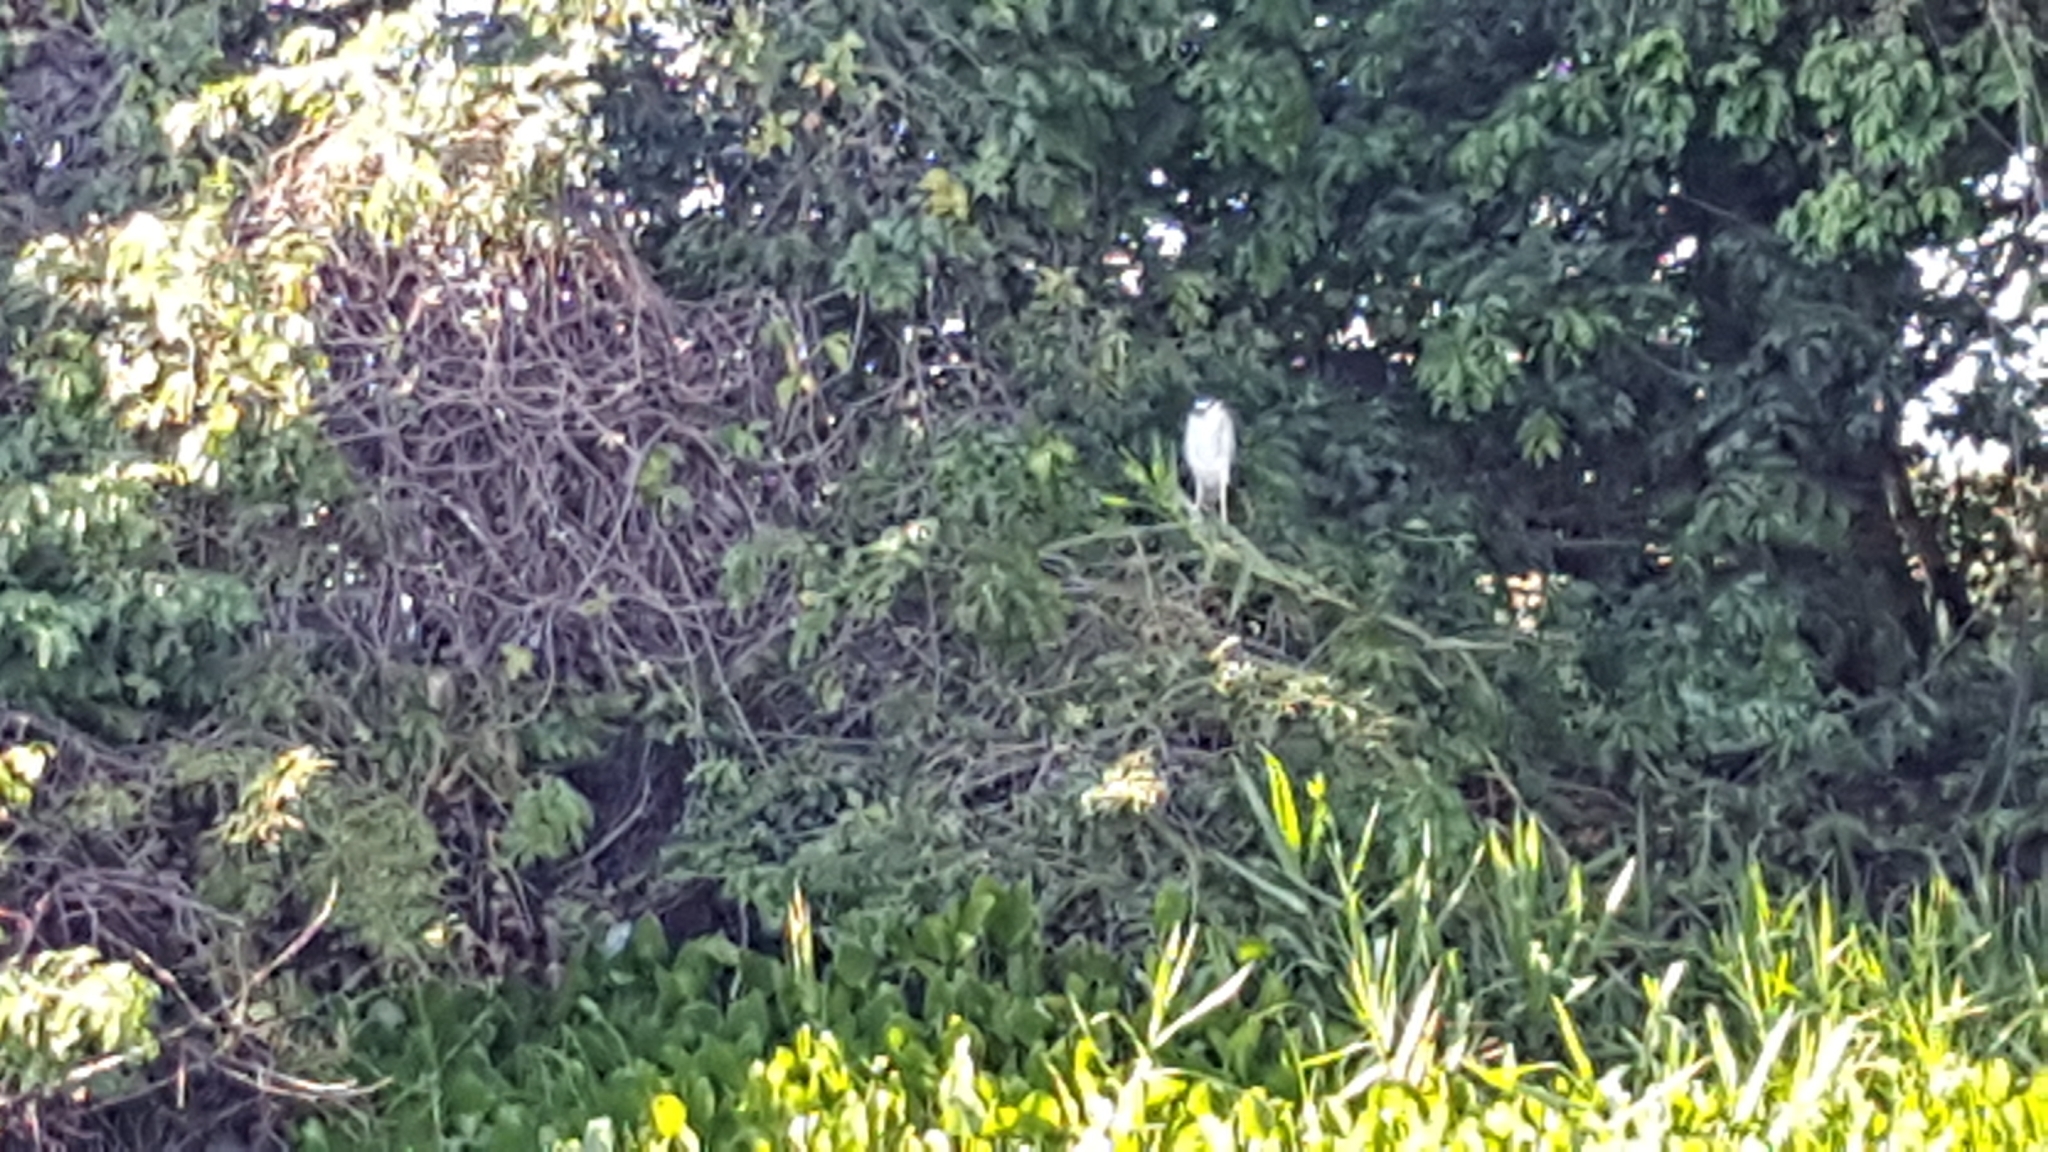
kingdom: Animalia
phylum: Chordata
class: Aves
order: Pelecaniformes
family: Ardeidae
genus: Nycticorax
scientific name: Nycticorax nycticorax
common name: Black-crowned night heron
